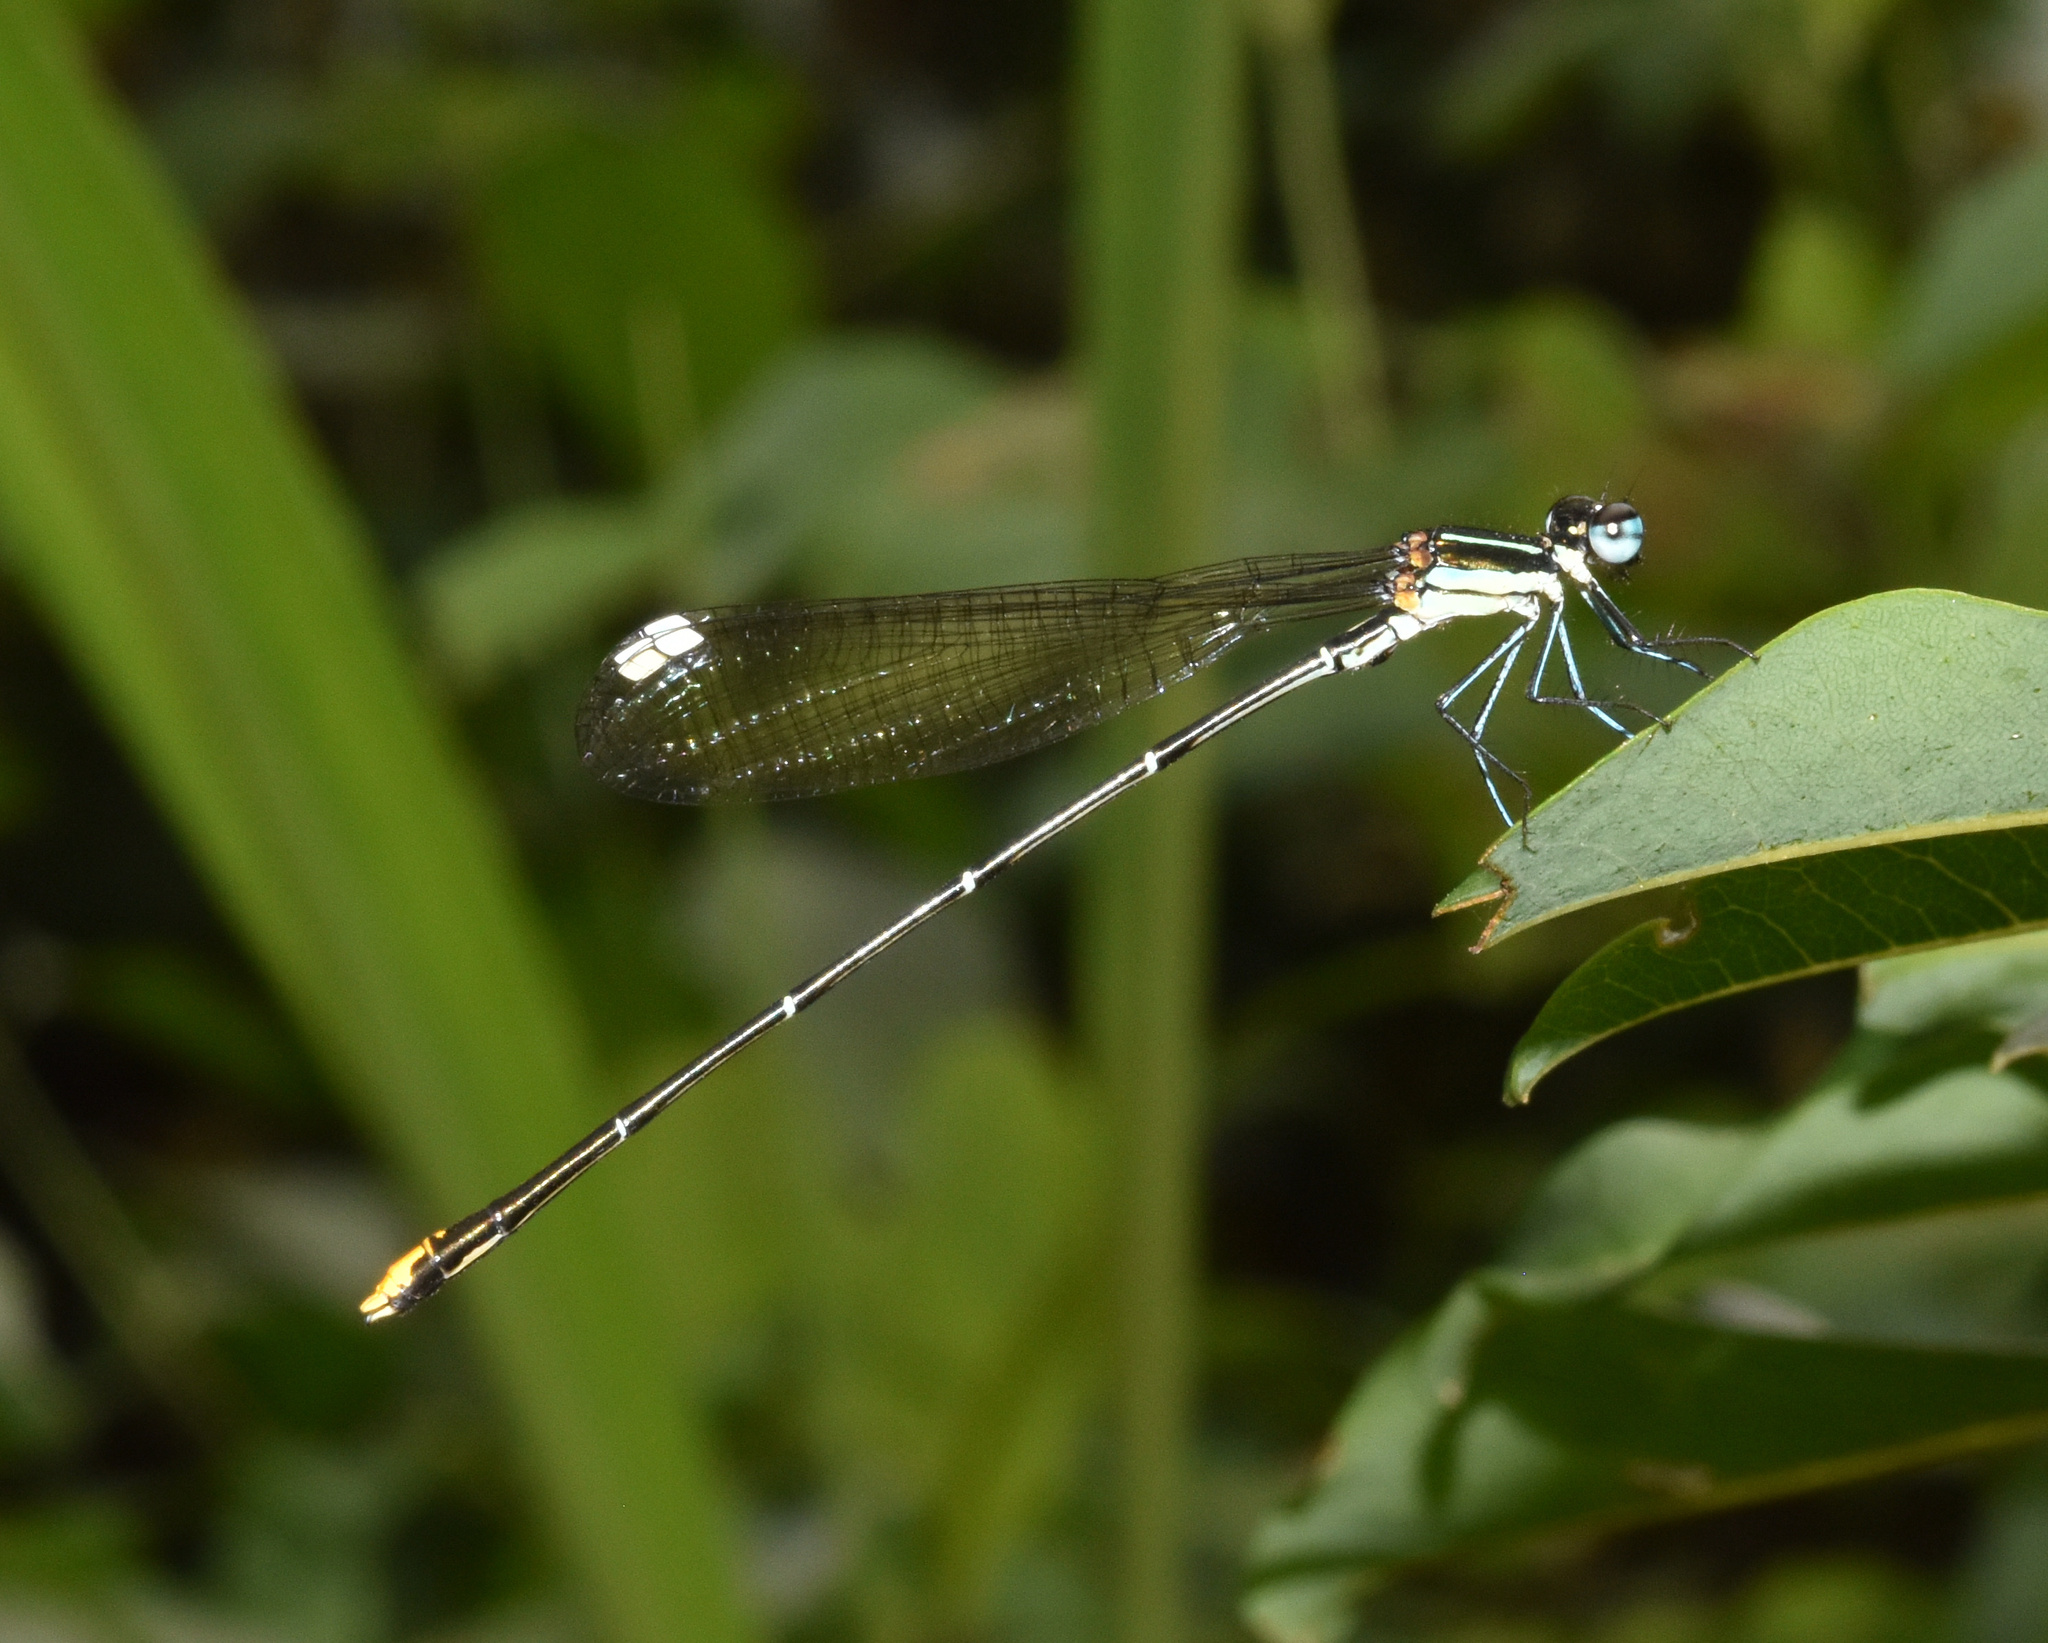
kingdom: Animalia
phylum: Arthropoda
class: Insecta
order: Odonata
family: Platycnemididae
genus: Allocnemis
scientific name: Allocnemis leucosticta
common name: Goldtail
